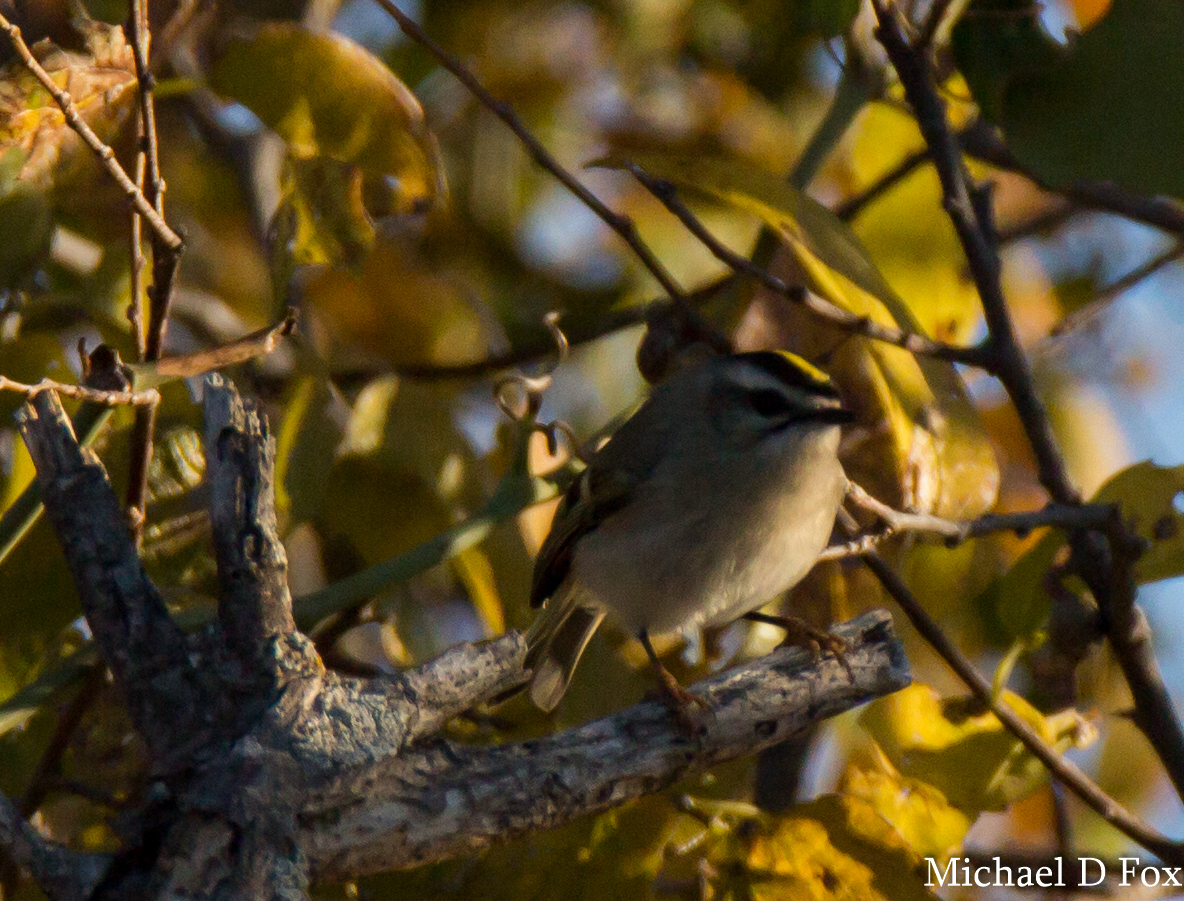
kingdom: Animalia
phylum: Chordata
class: Aves
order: Passeriformes
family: Regulidae
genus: Regulus
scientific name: Regulus satrapa
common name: Golden-crowned kinglet
